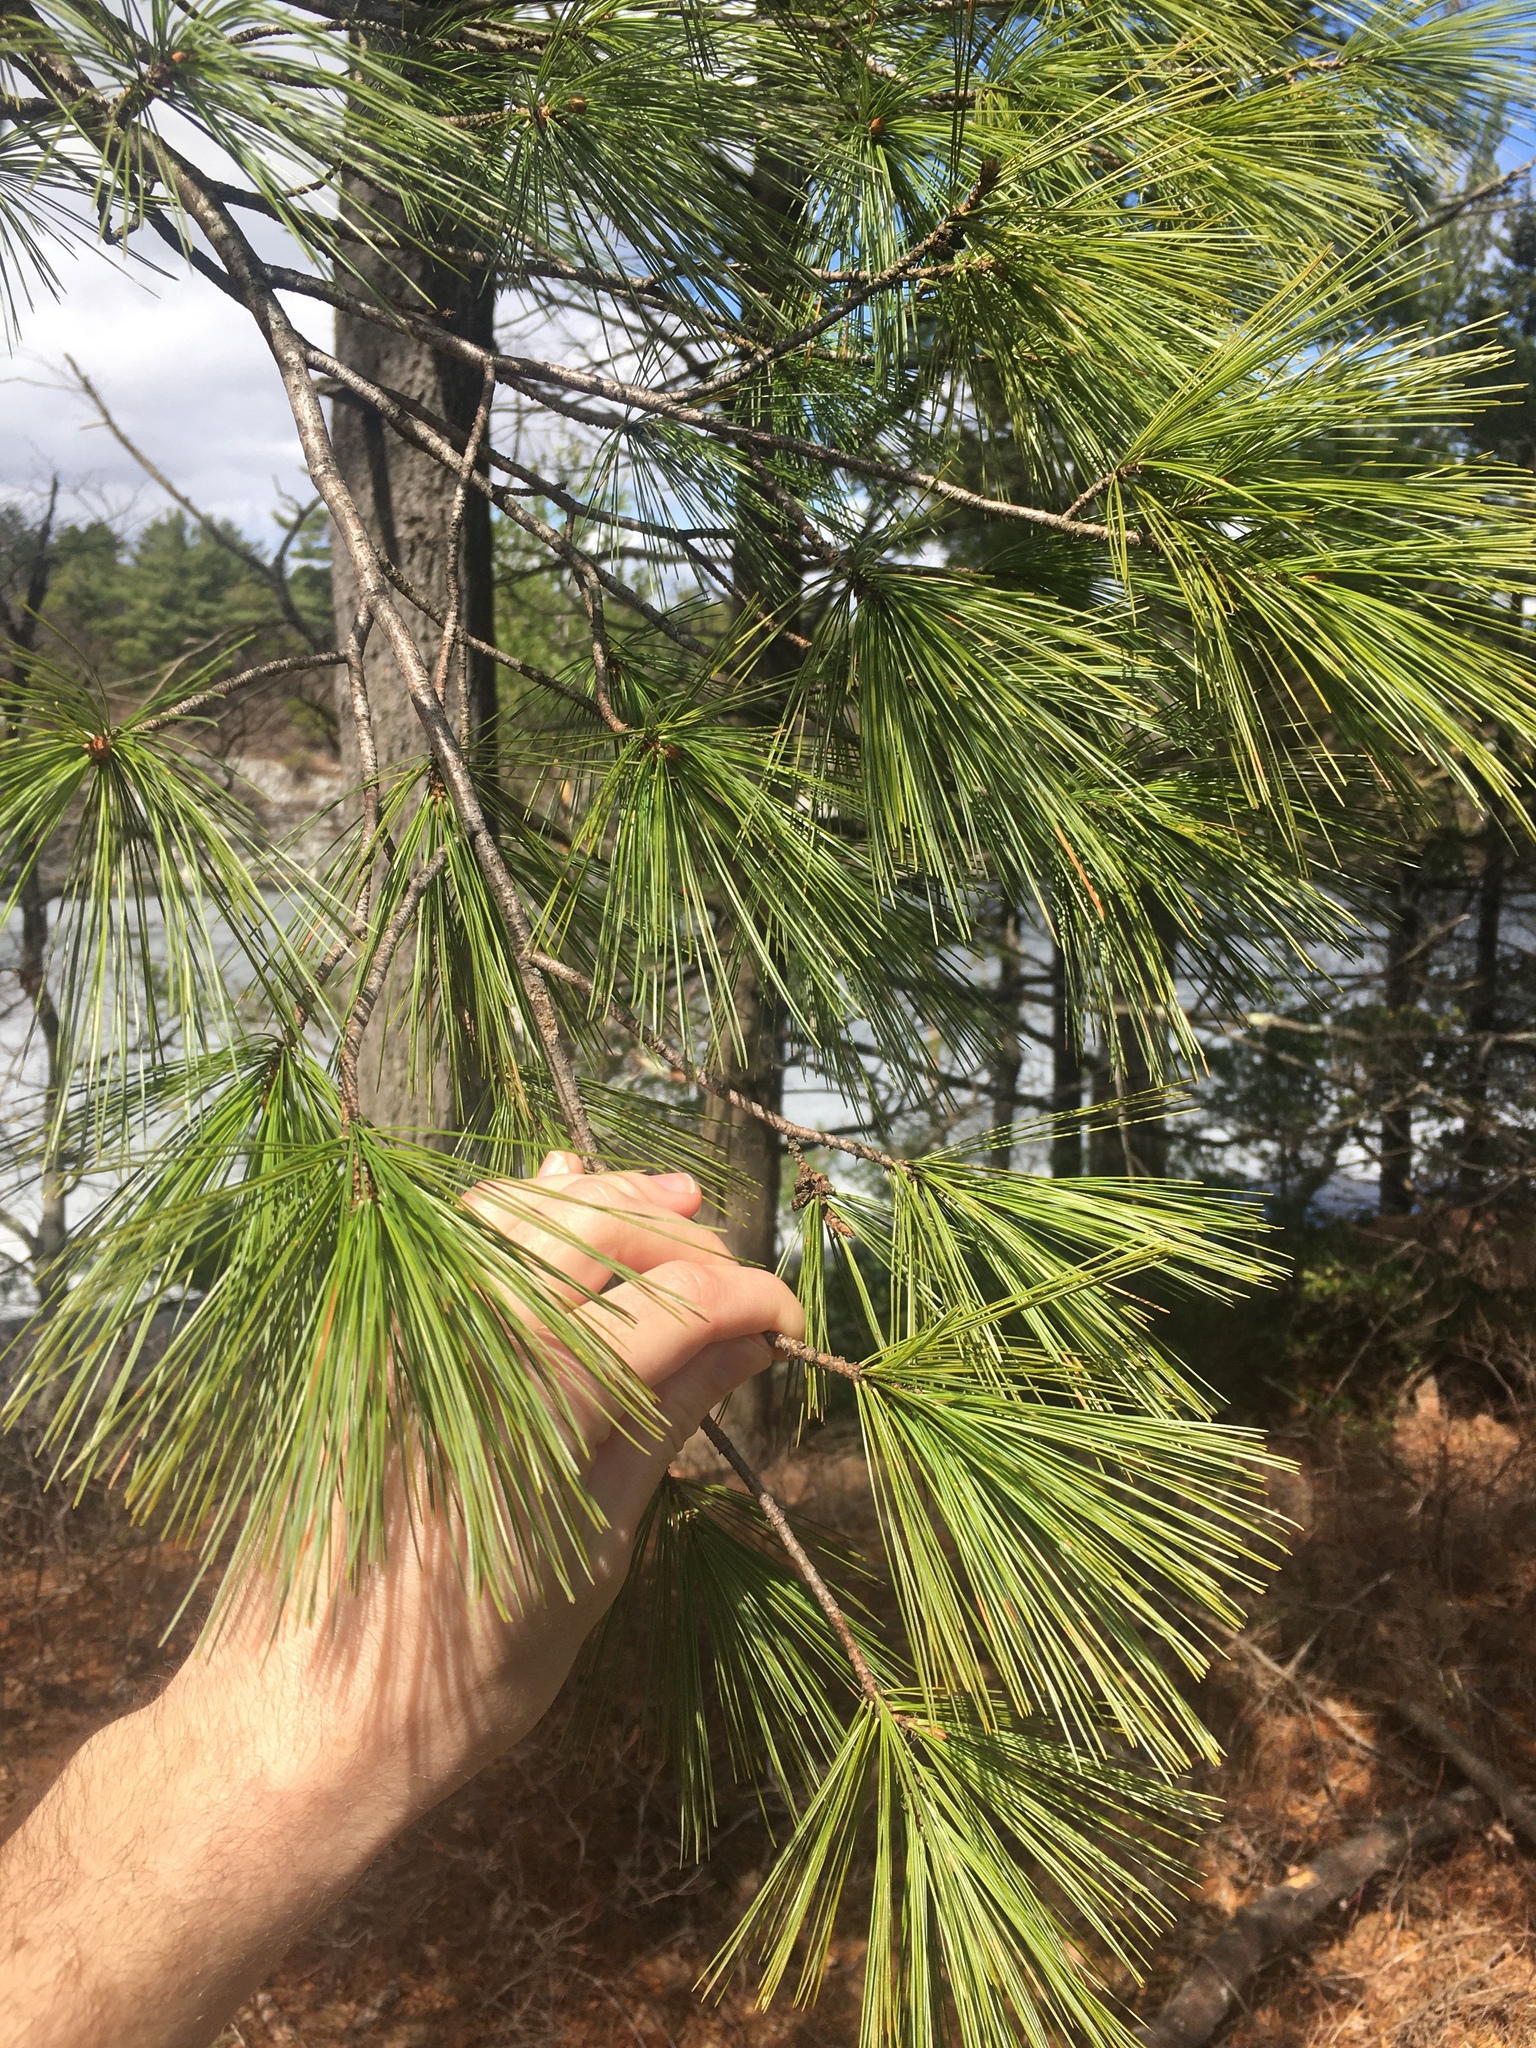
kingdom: Plantae
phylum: Tracheophyta
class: Pinopsida
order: Pinales
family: Pinaceae
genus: Pinus
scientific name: Pinus strobus
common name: Weymouth pine
